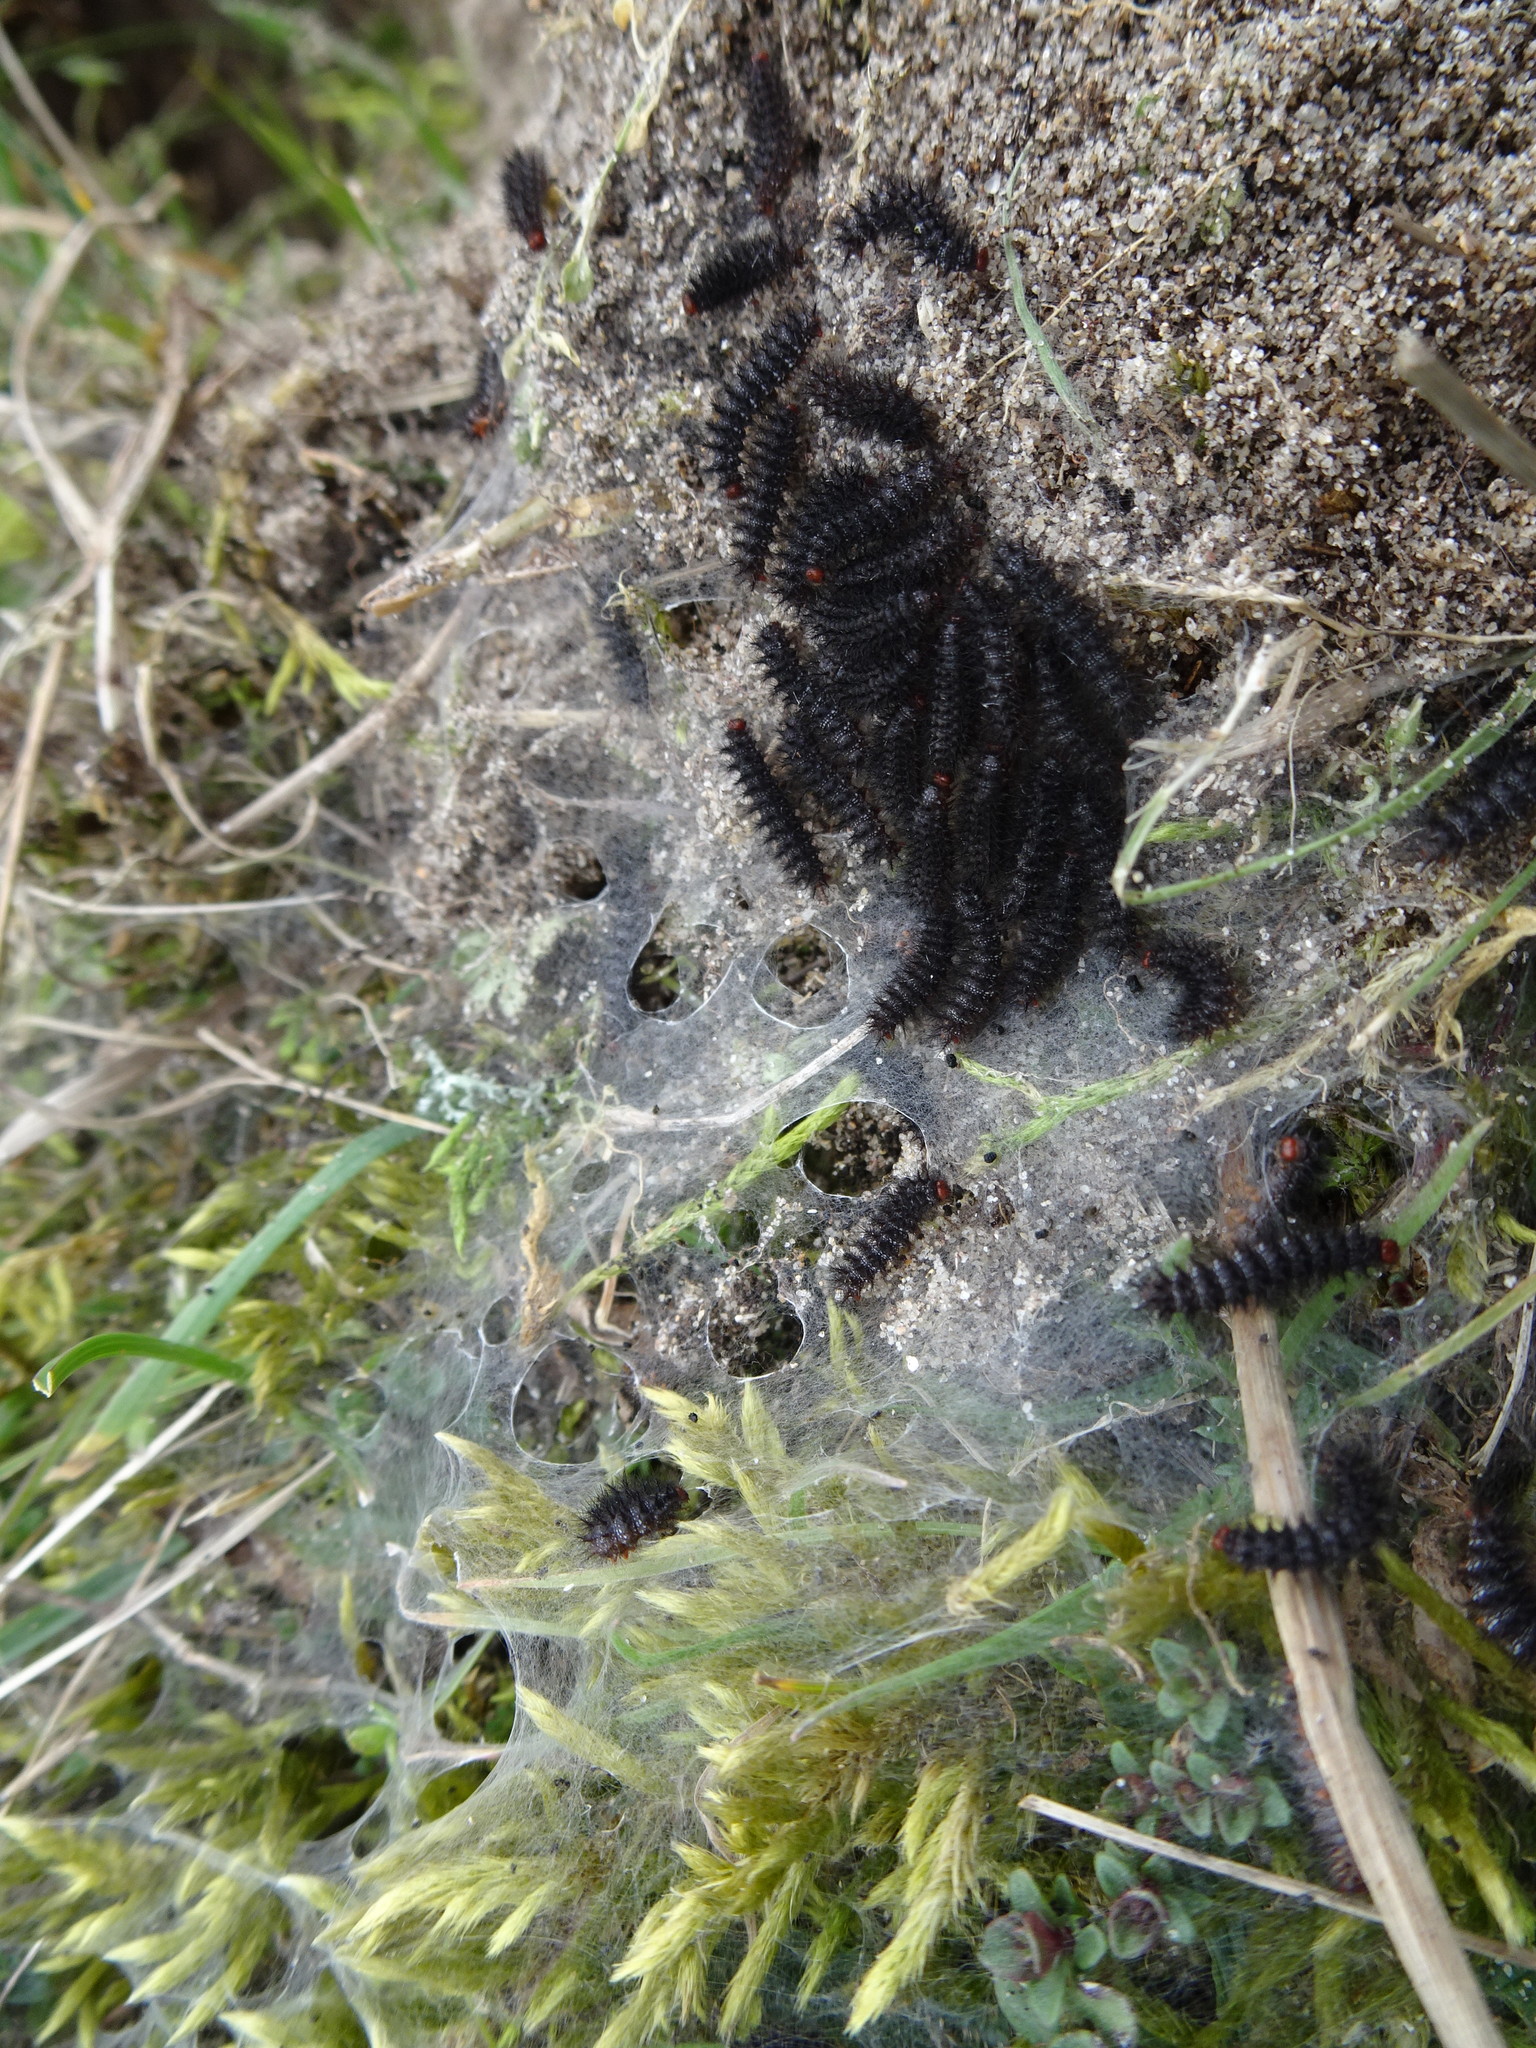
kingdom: Animalia
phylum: Arthropoda
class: Insecta
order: Lepidoptera
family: Nymphalidae
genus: Melitaea
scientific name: Melitaea cinxia
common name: Glanville fritillary
